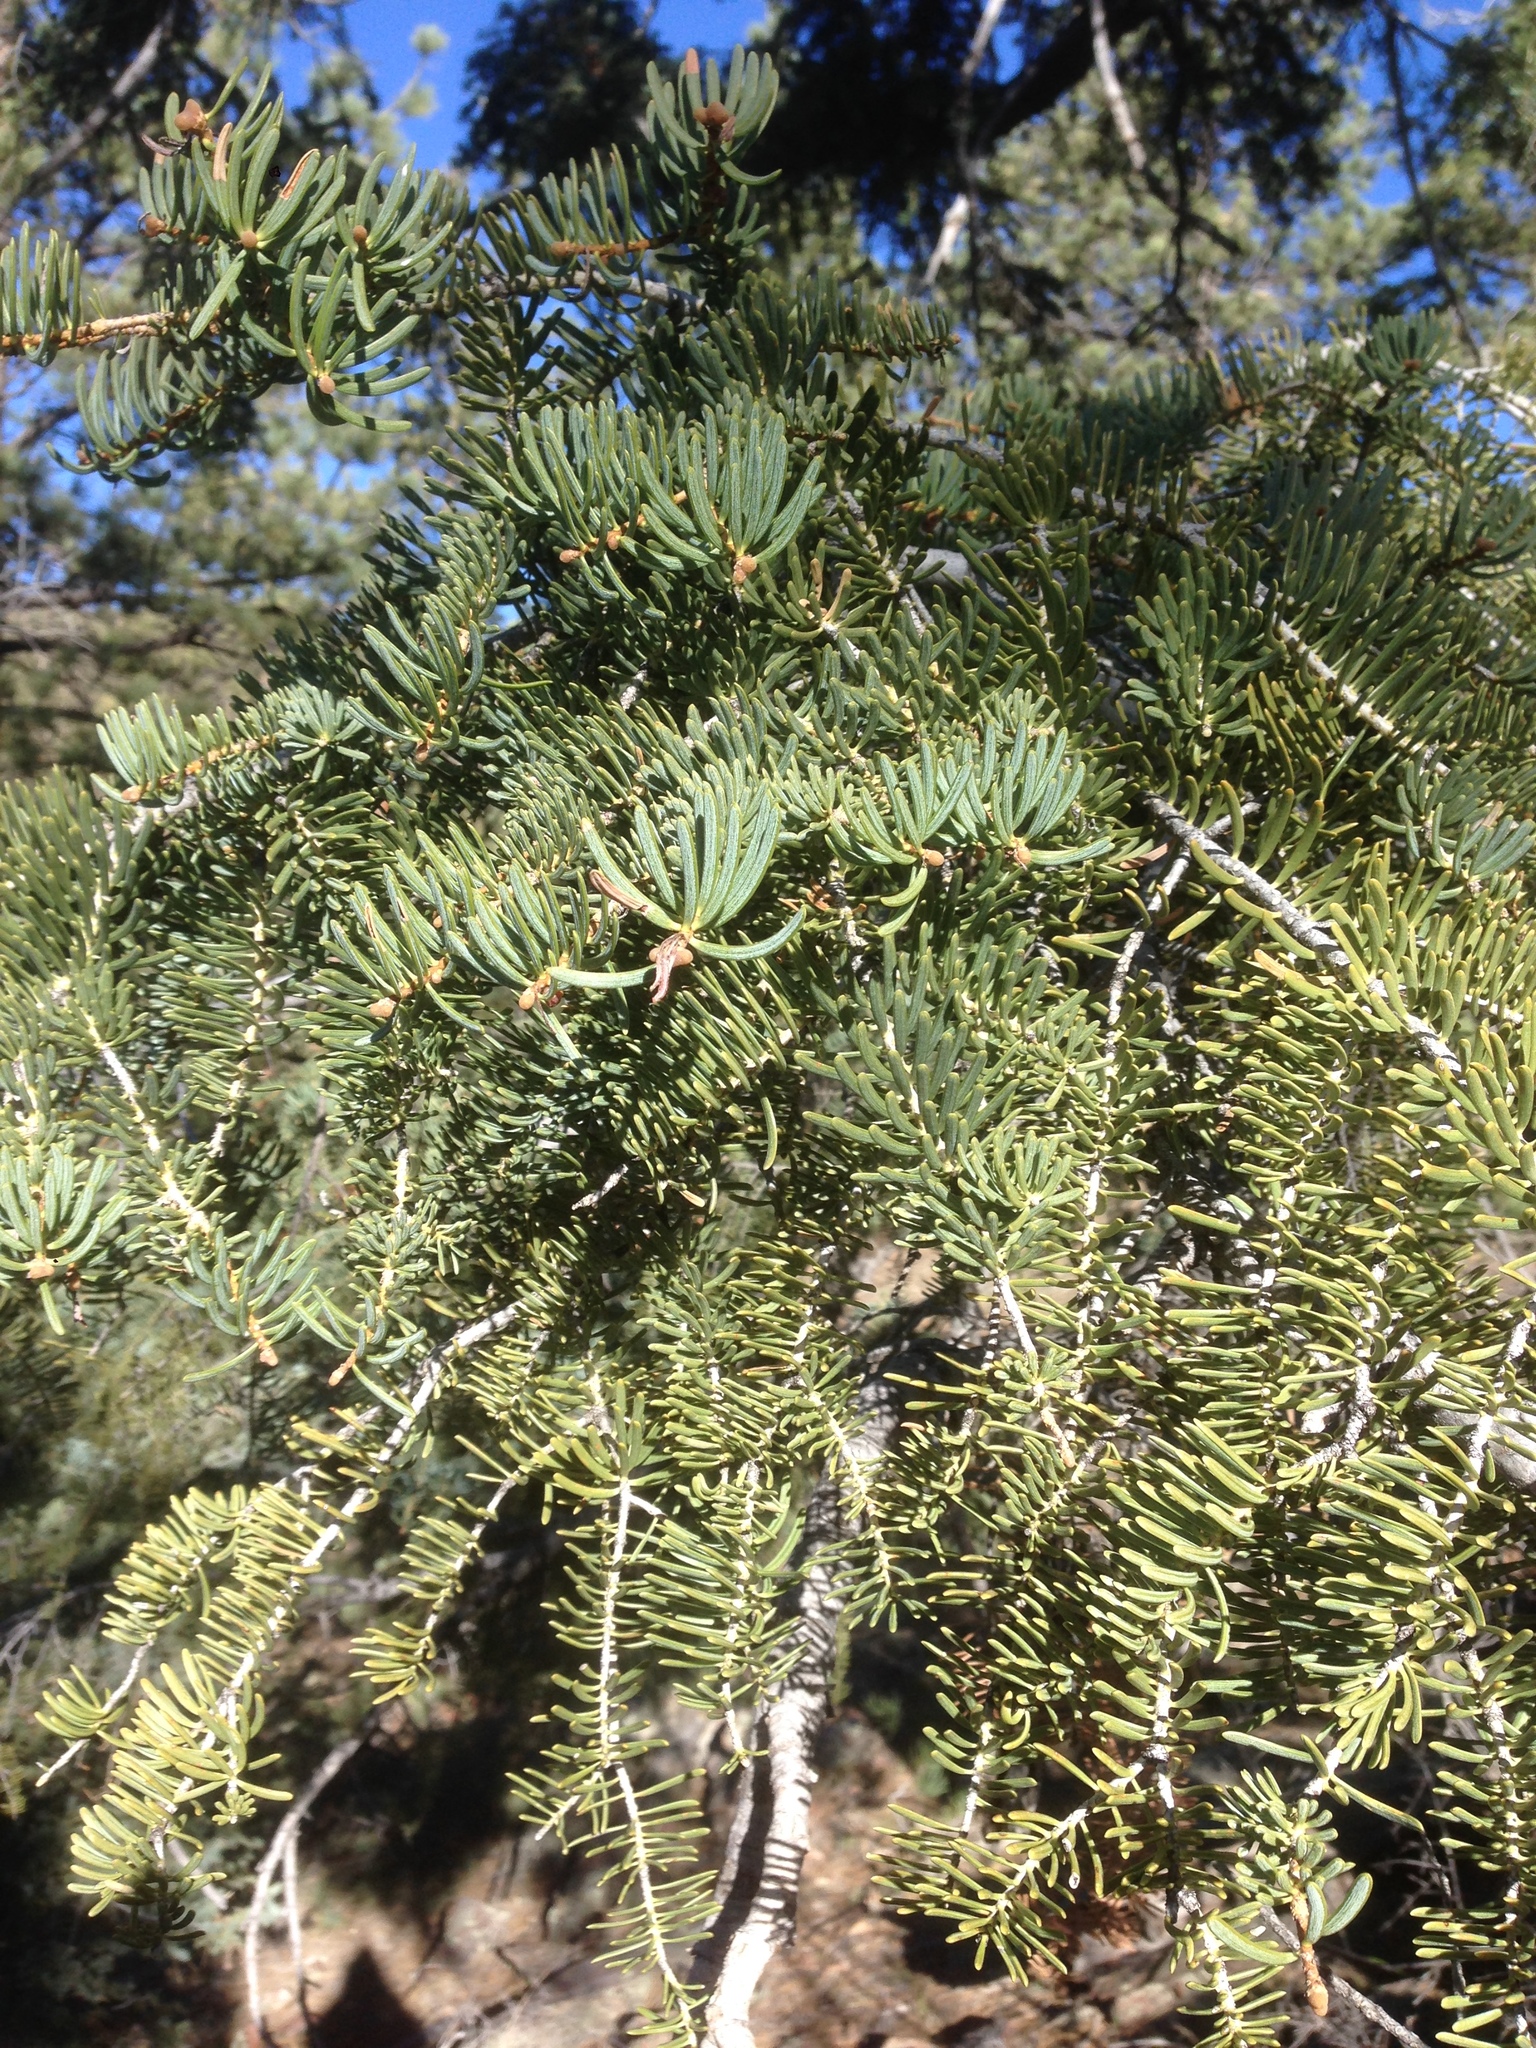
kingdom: Plantae
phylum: Tracheophyta
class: Pinopsida
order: Pinales
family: Pinaceae
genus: Abies
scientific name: Abies concolor
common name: Colorado fir
